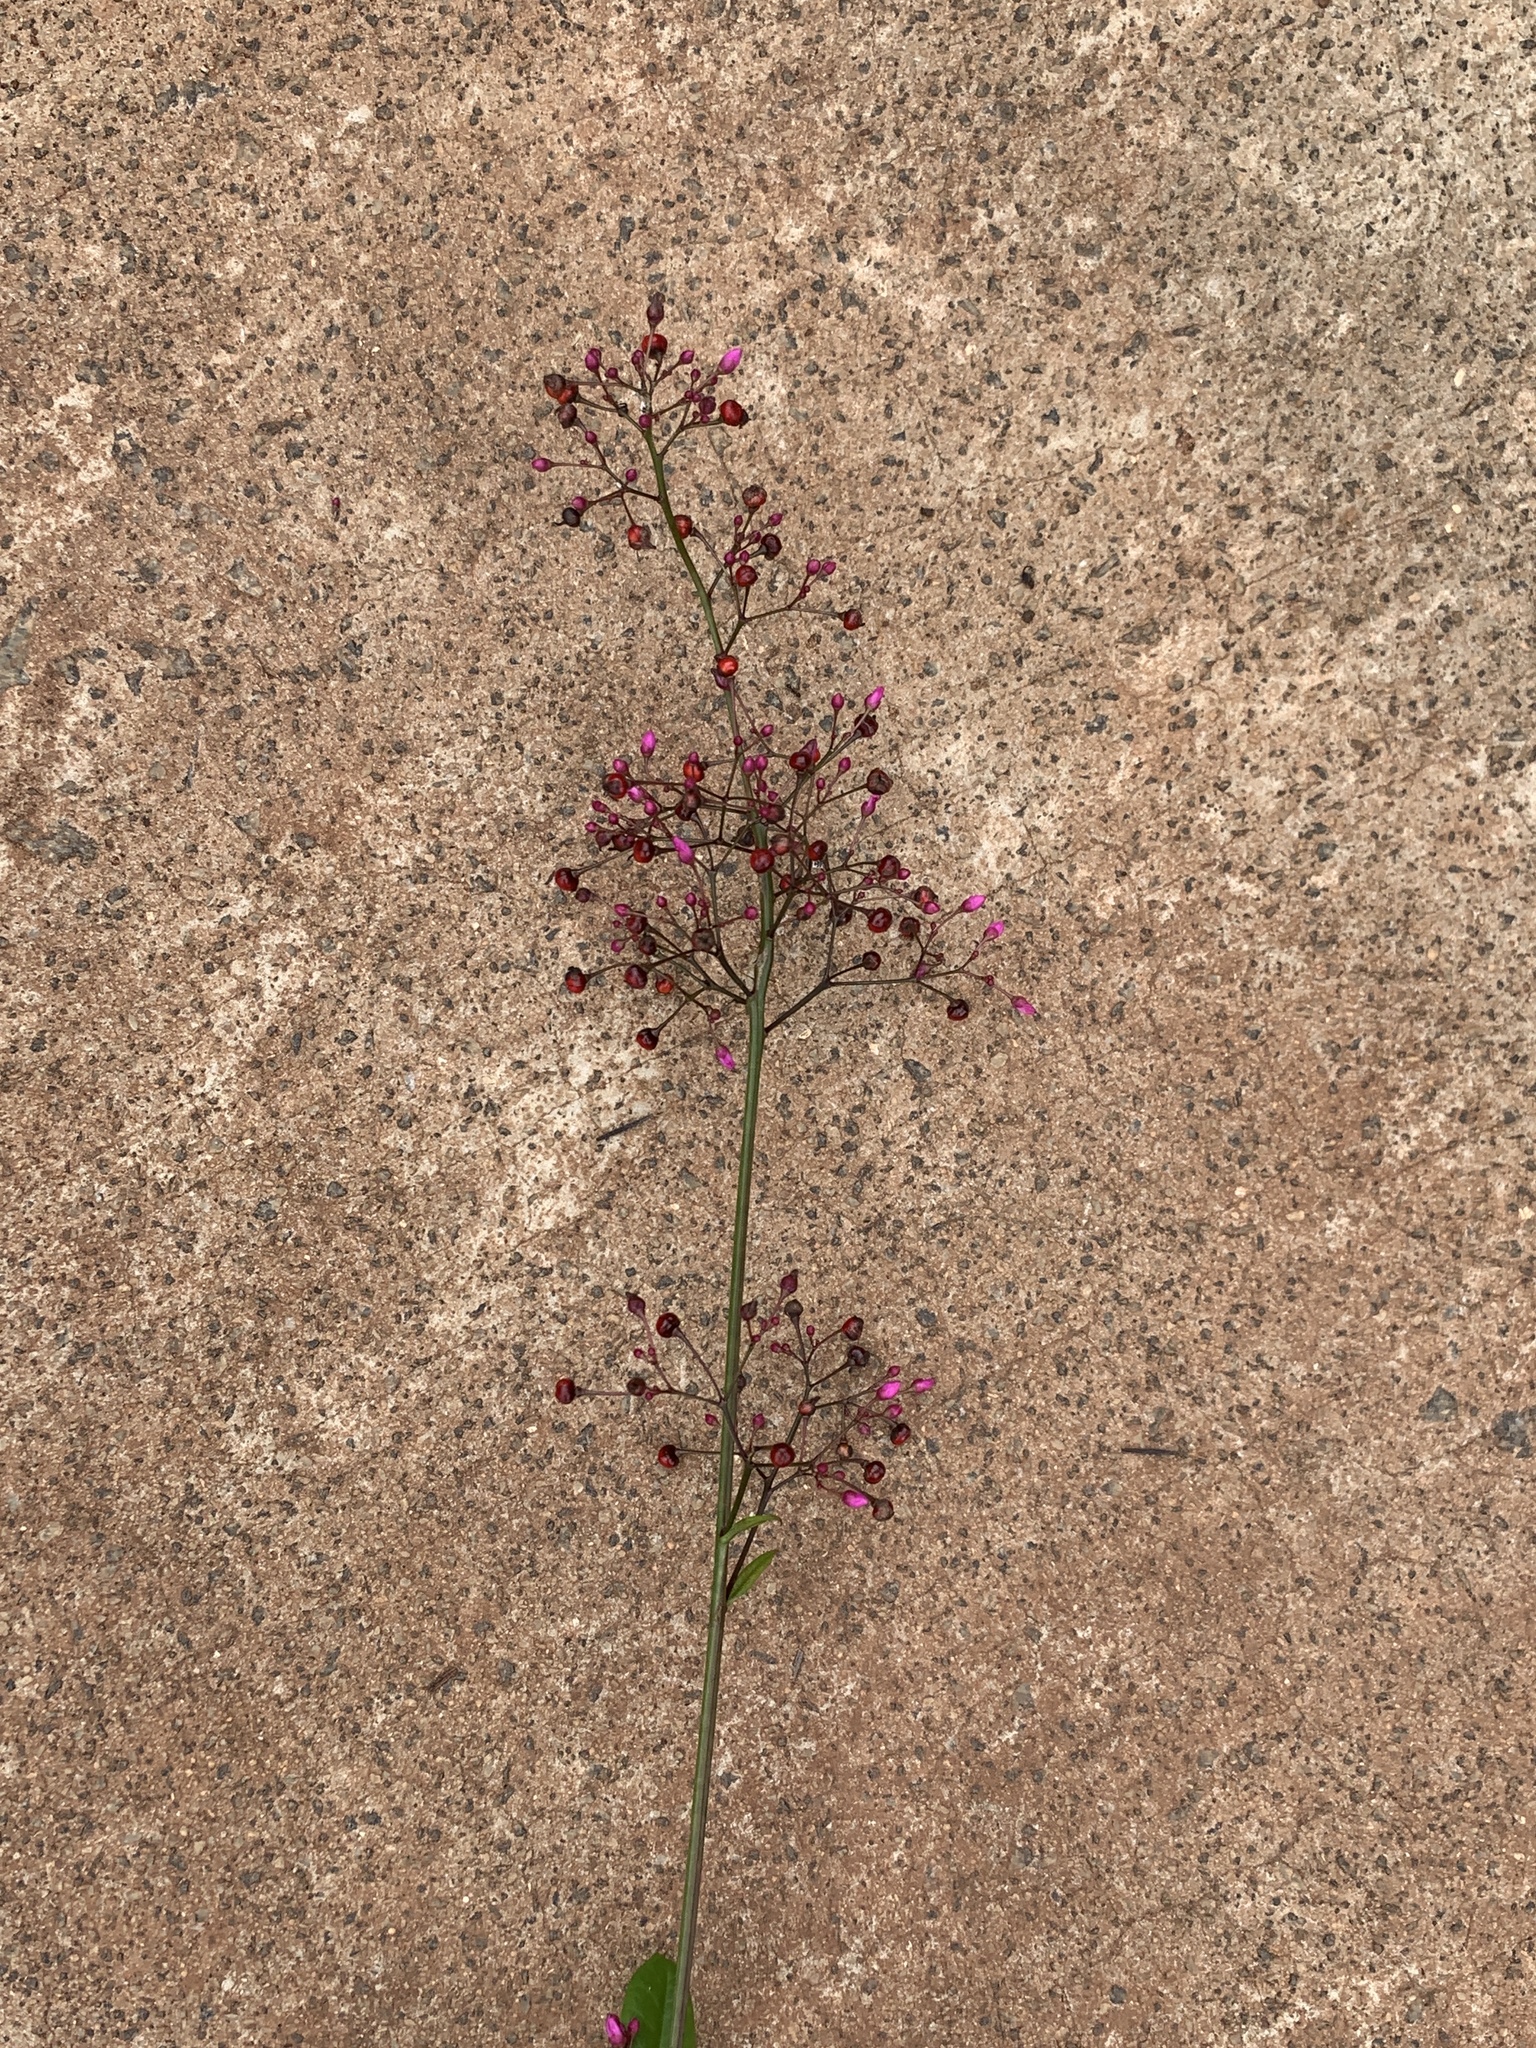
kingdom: Plantae
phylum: Tracheophyta
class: Magnoliopsida
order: Caryophyllales
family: Talinaceae
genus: Talinum
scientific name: Talinum paniculatum
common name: Jewels of opar
